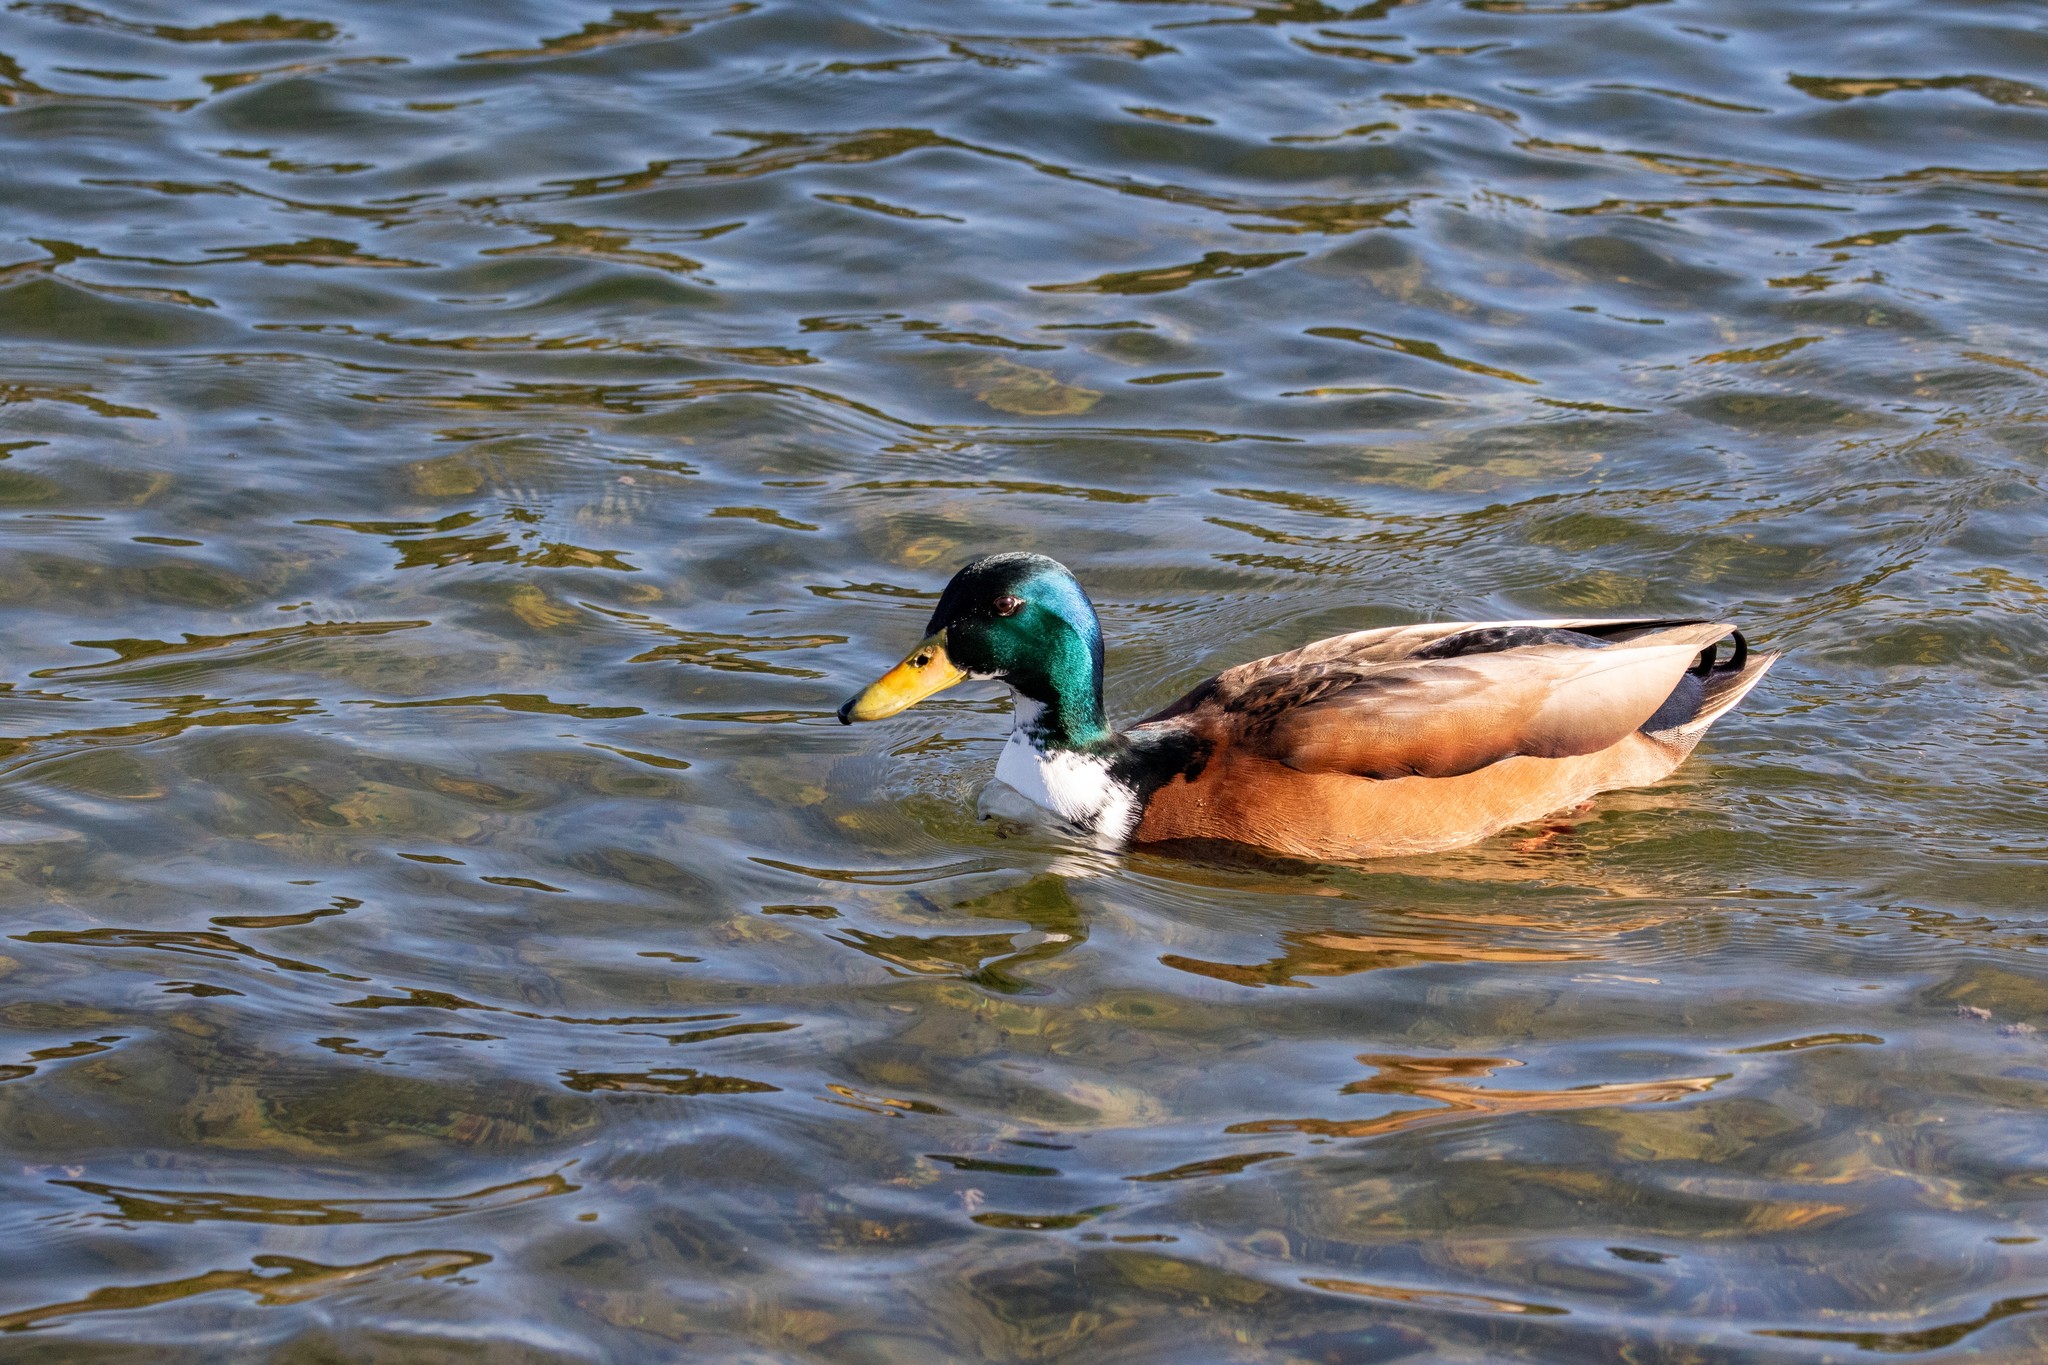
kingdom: Animalia
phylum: Chordata
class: Aves
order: Anseriformes
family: Anatidae
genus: Anas
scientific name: Anas platyrhynchos
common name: Mallard
